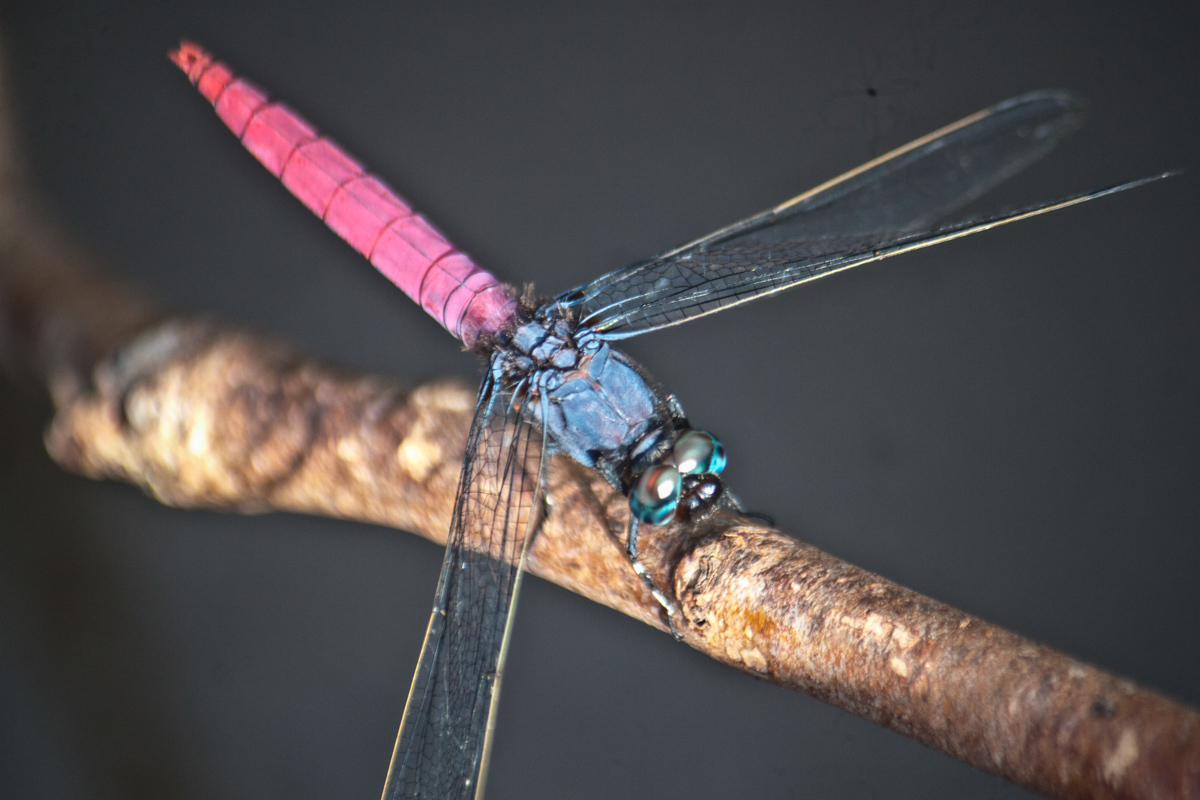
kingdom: Animalia
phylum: Arthropoda
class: Insecta
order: Odonata
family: Libellulidae
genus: Orthetrum
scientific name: Orthetrum pruinosum
